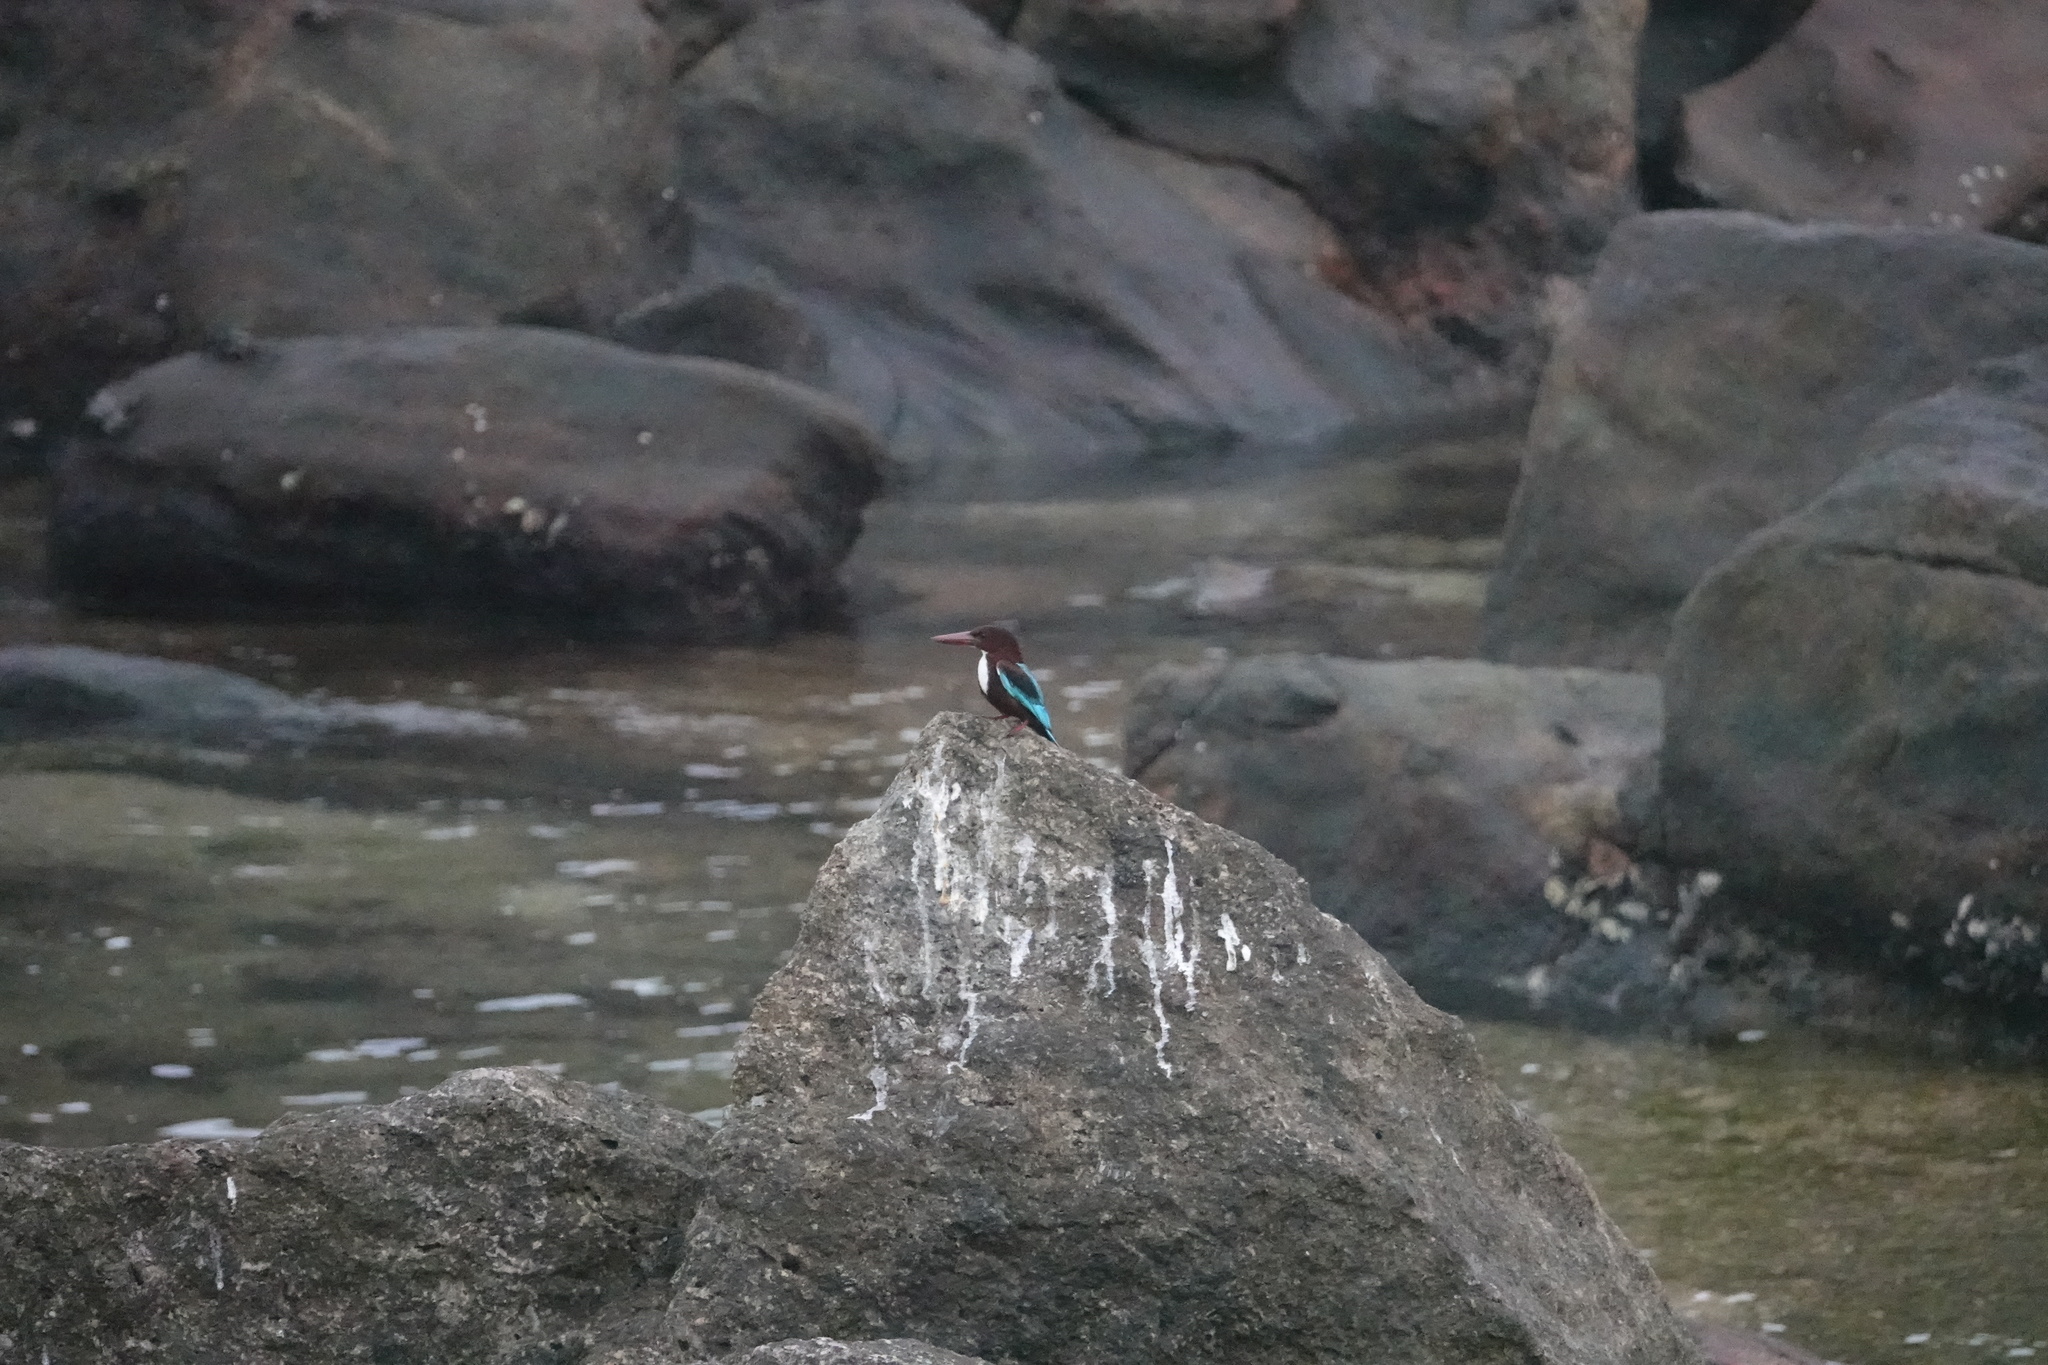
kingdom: Animalia
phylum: Chordata
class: Aves
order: Coraciiformes
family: Alcedinidae
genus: Halcyon
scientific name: Halcyon smyrnensis
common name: White-throated kingfisher
